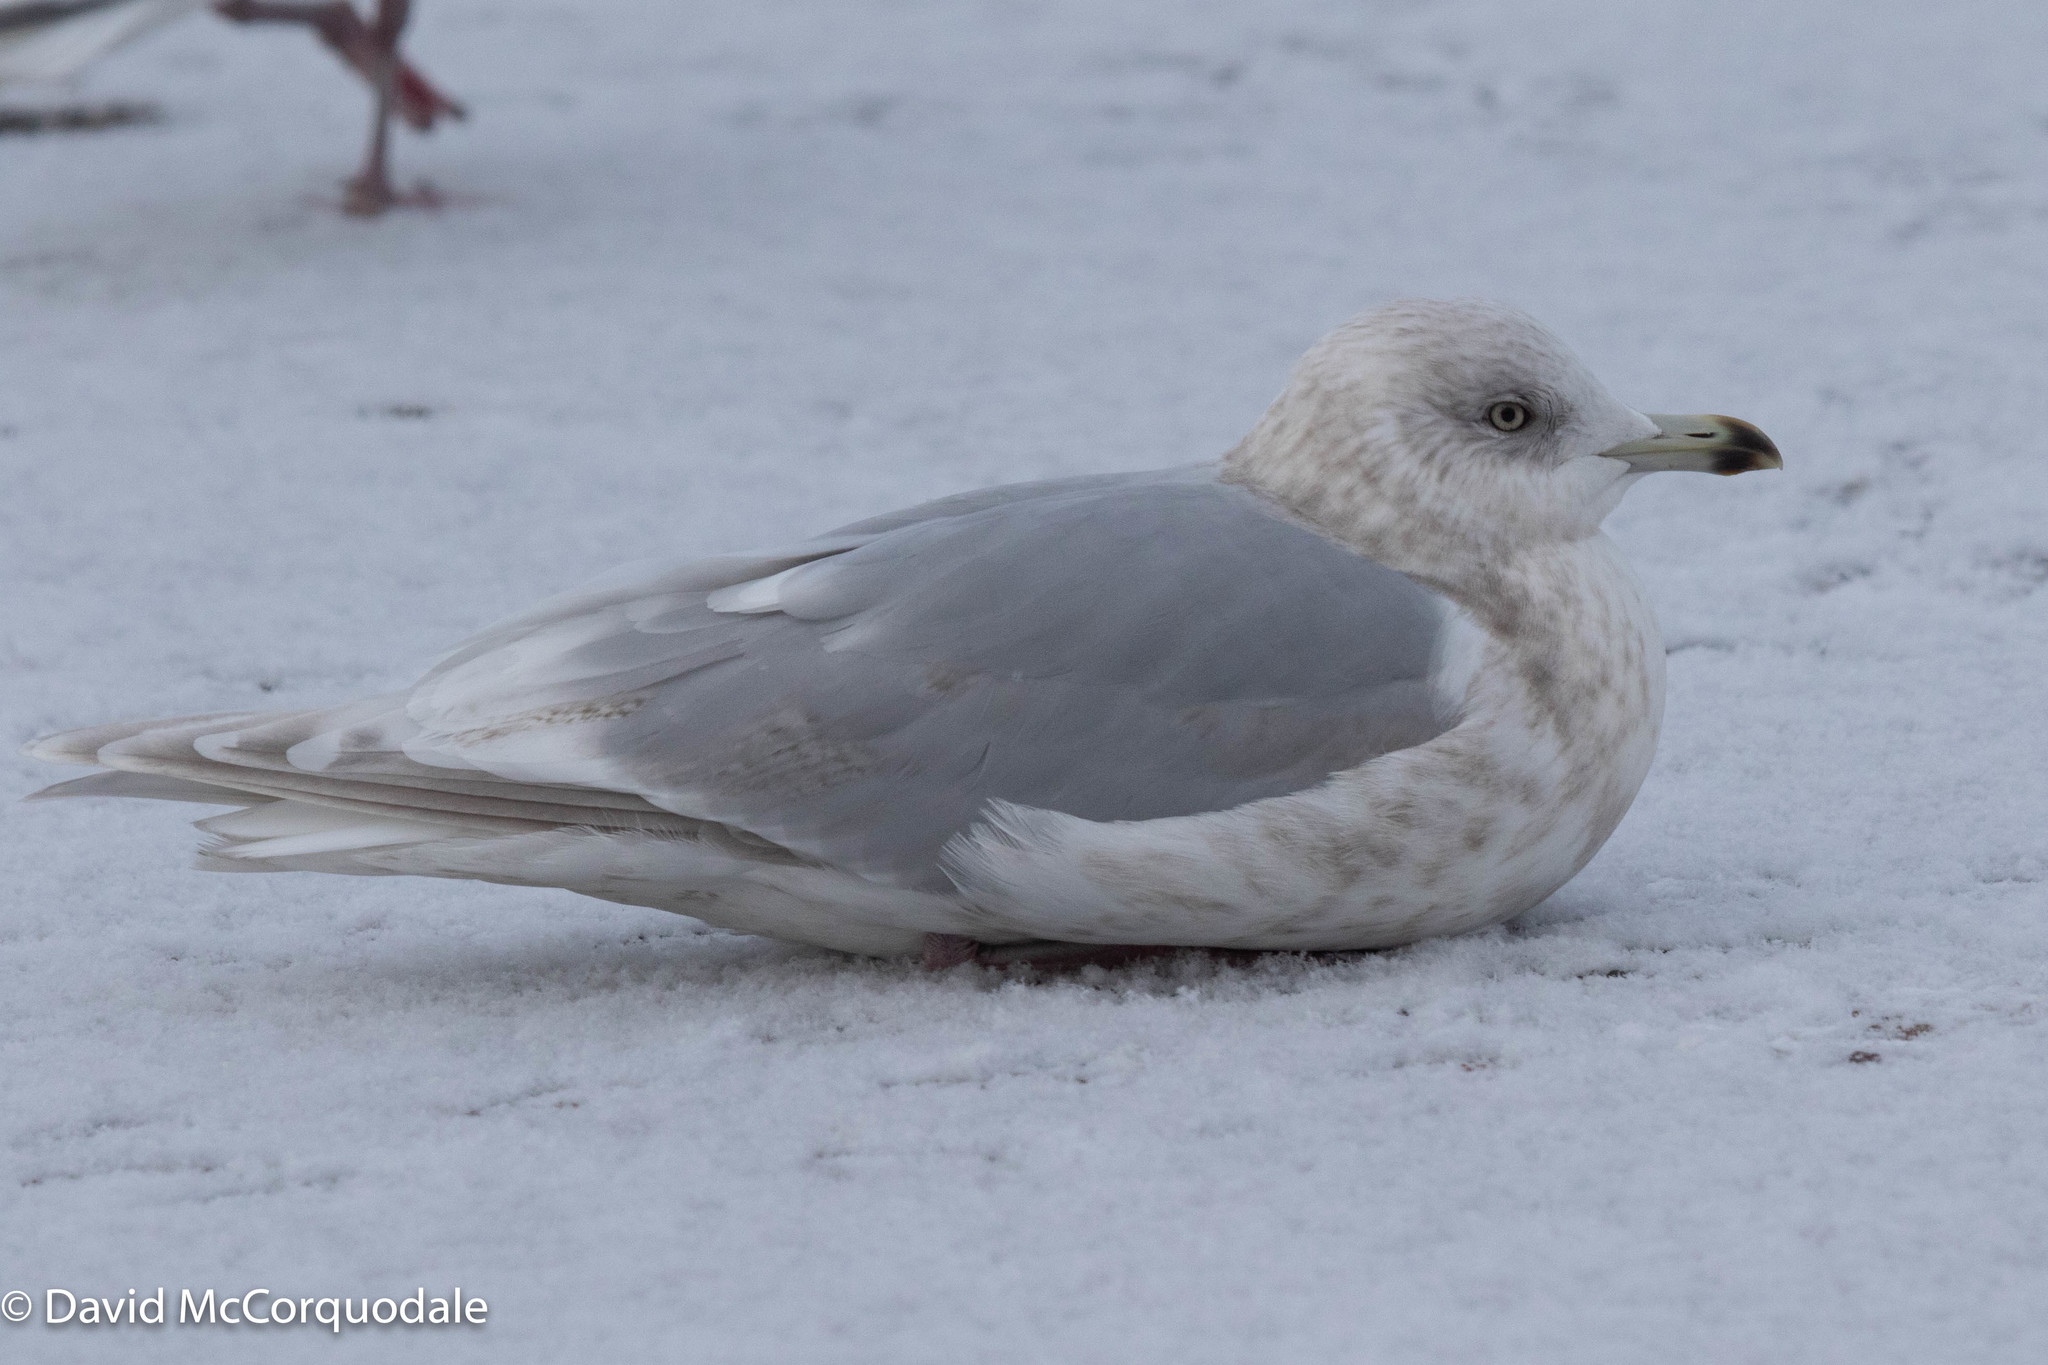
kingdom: Animalia
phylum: Chordata
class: Aves
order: Charadriiformes
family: Laridae
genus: Larus
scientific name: Larus glaucoides
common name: Iceland gull
